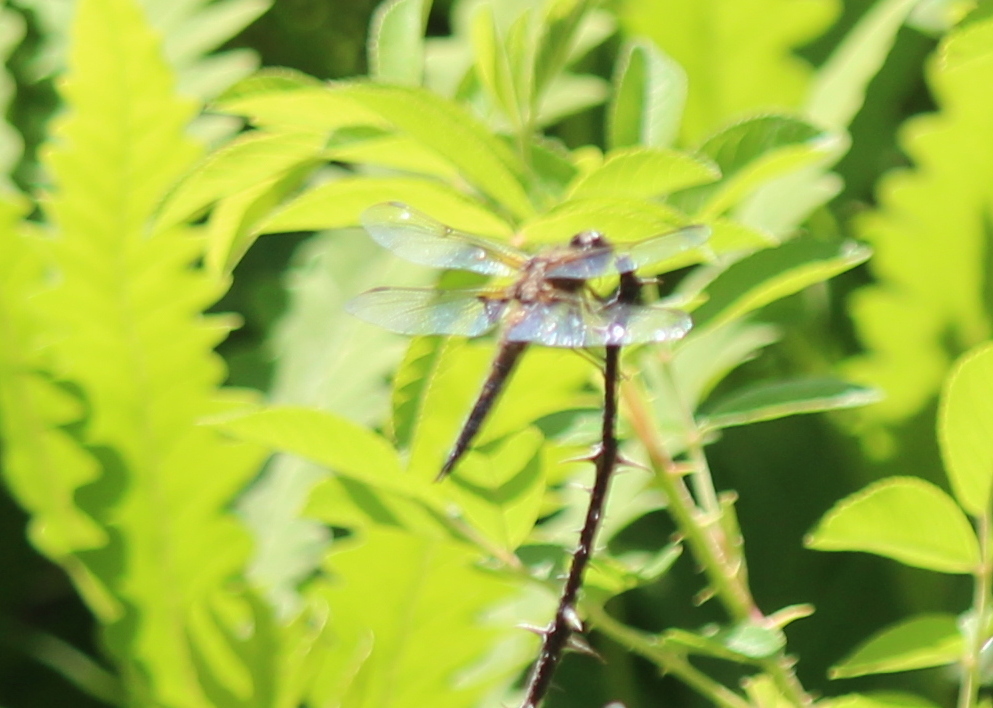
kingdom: Animalia
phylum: Arthropoda
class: Insecta
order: Odonata
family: Libellulidae
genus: Libellula
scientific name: Libellula quadrimaculata
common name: Four-spotted chaser
